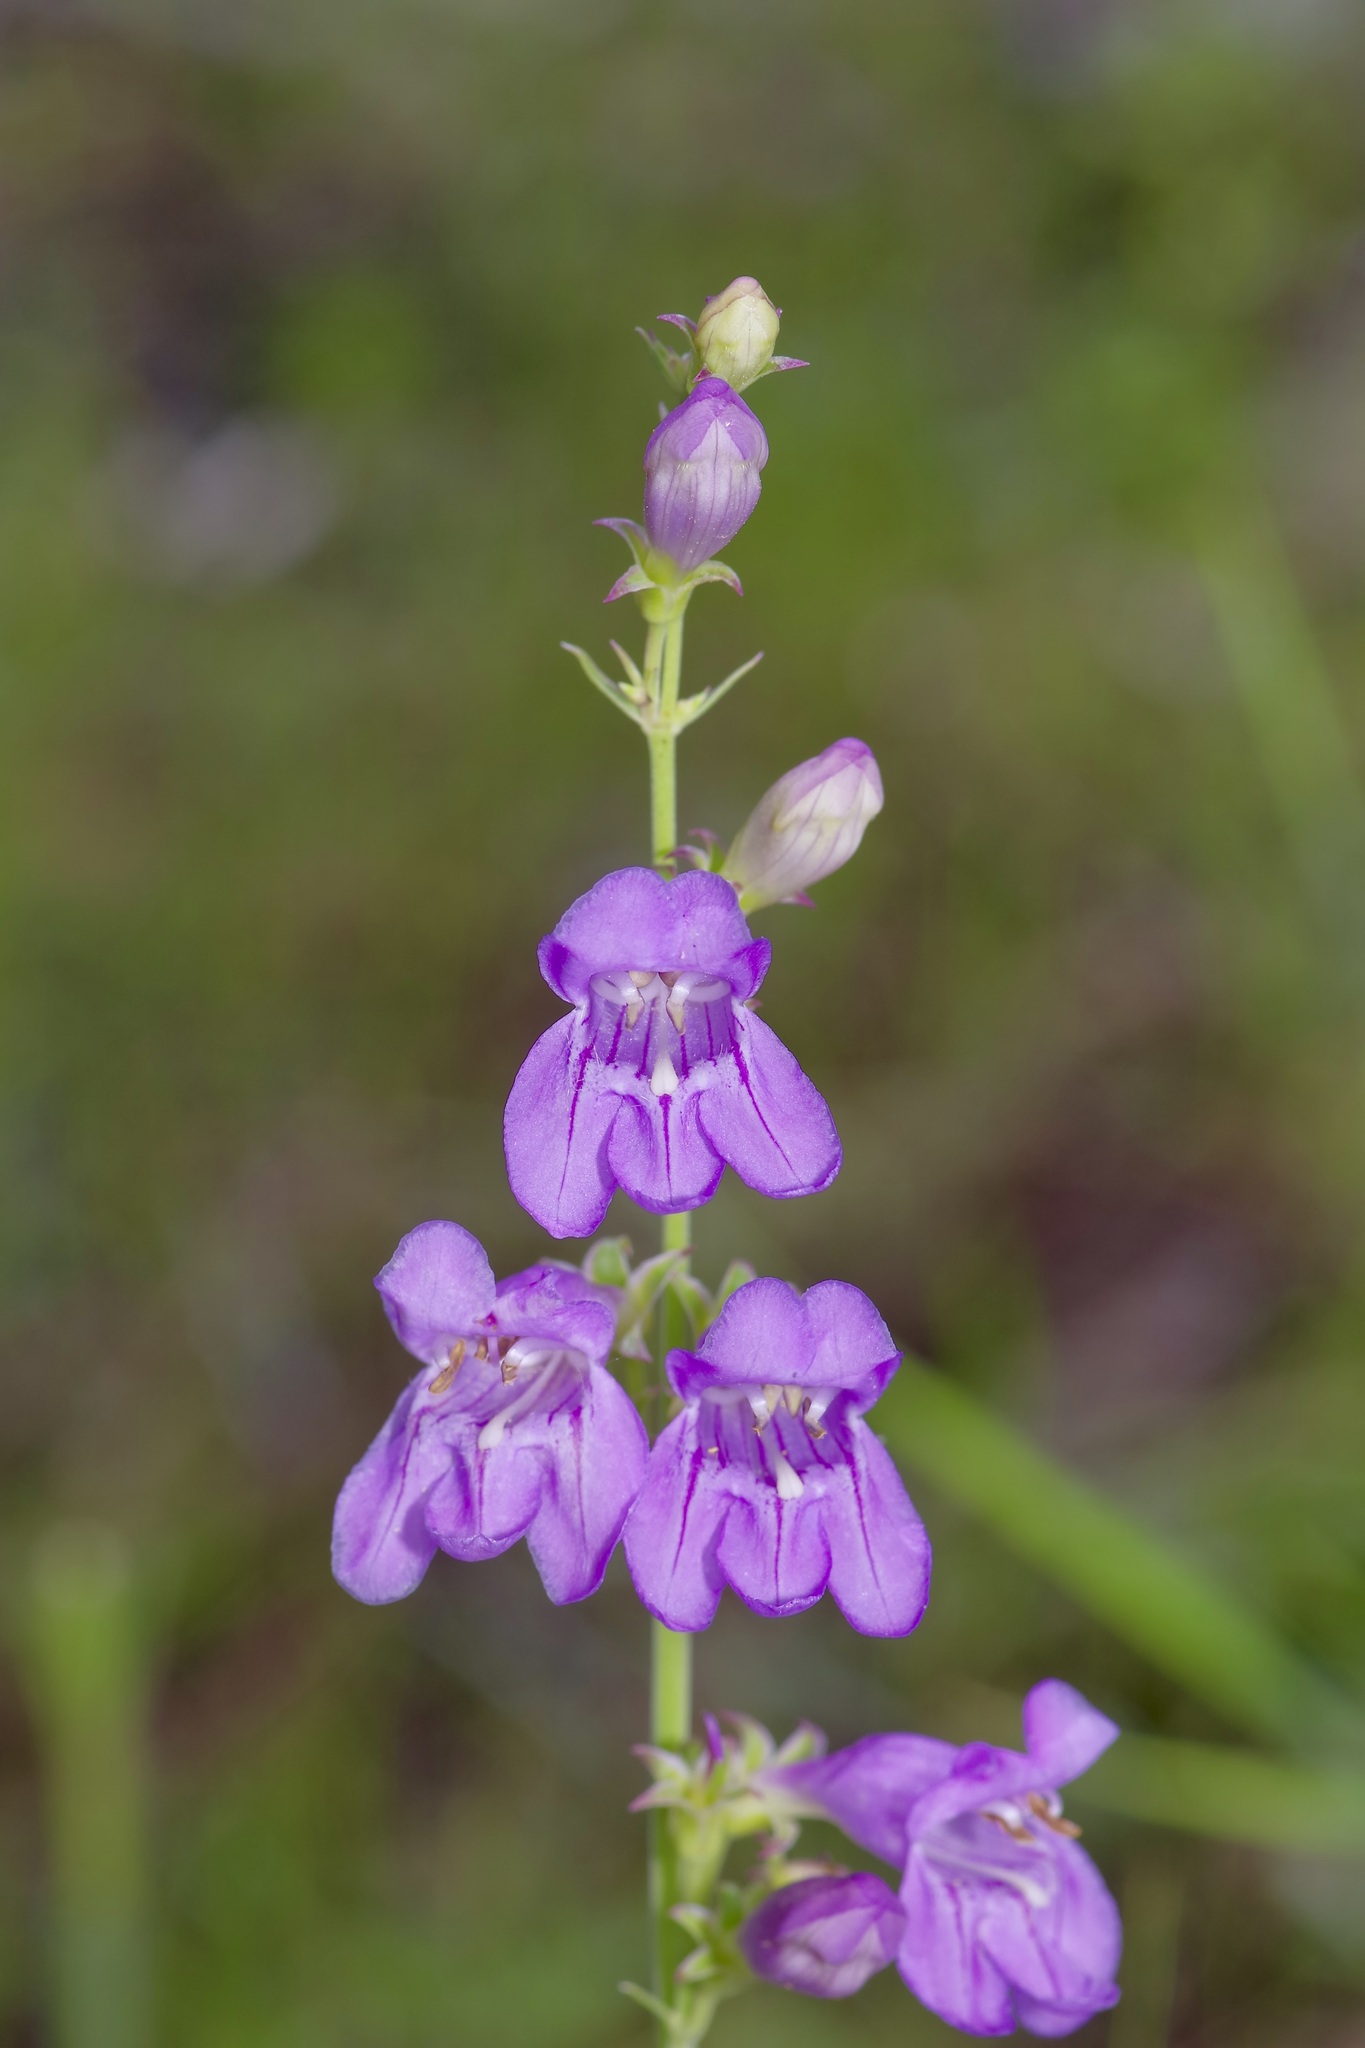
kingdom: Plantae
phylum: Tracheophyta
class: Magnoliopsida
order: Lamiales
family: Plantaginaceae
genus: Penstemon
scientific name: Penstemon virgatus
